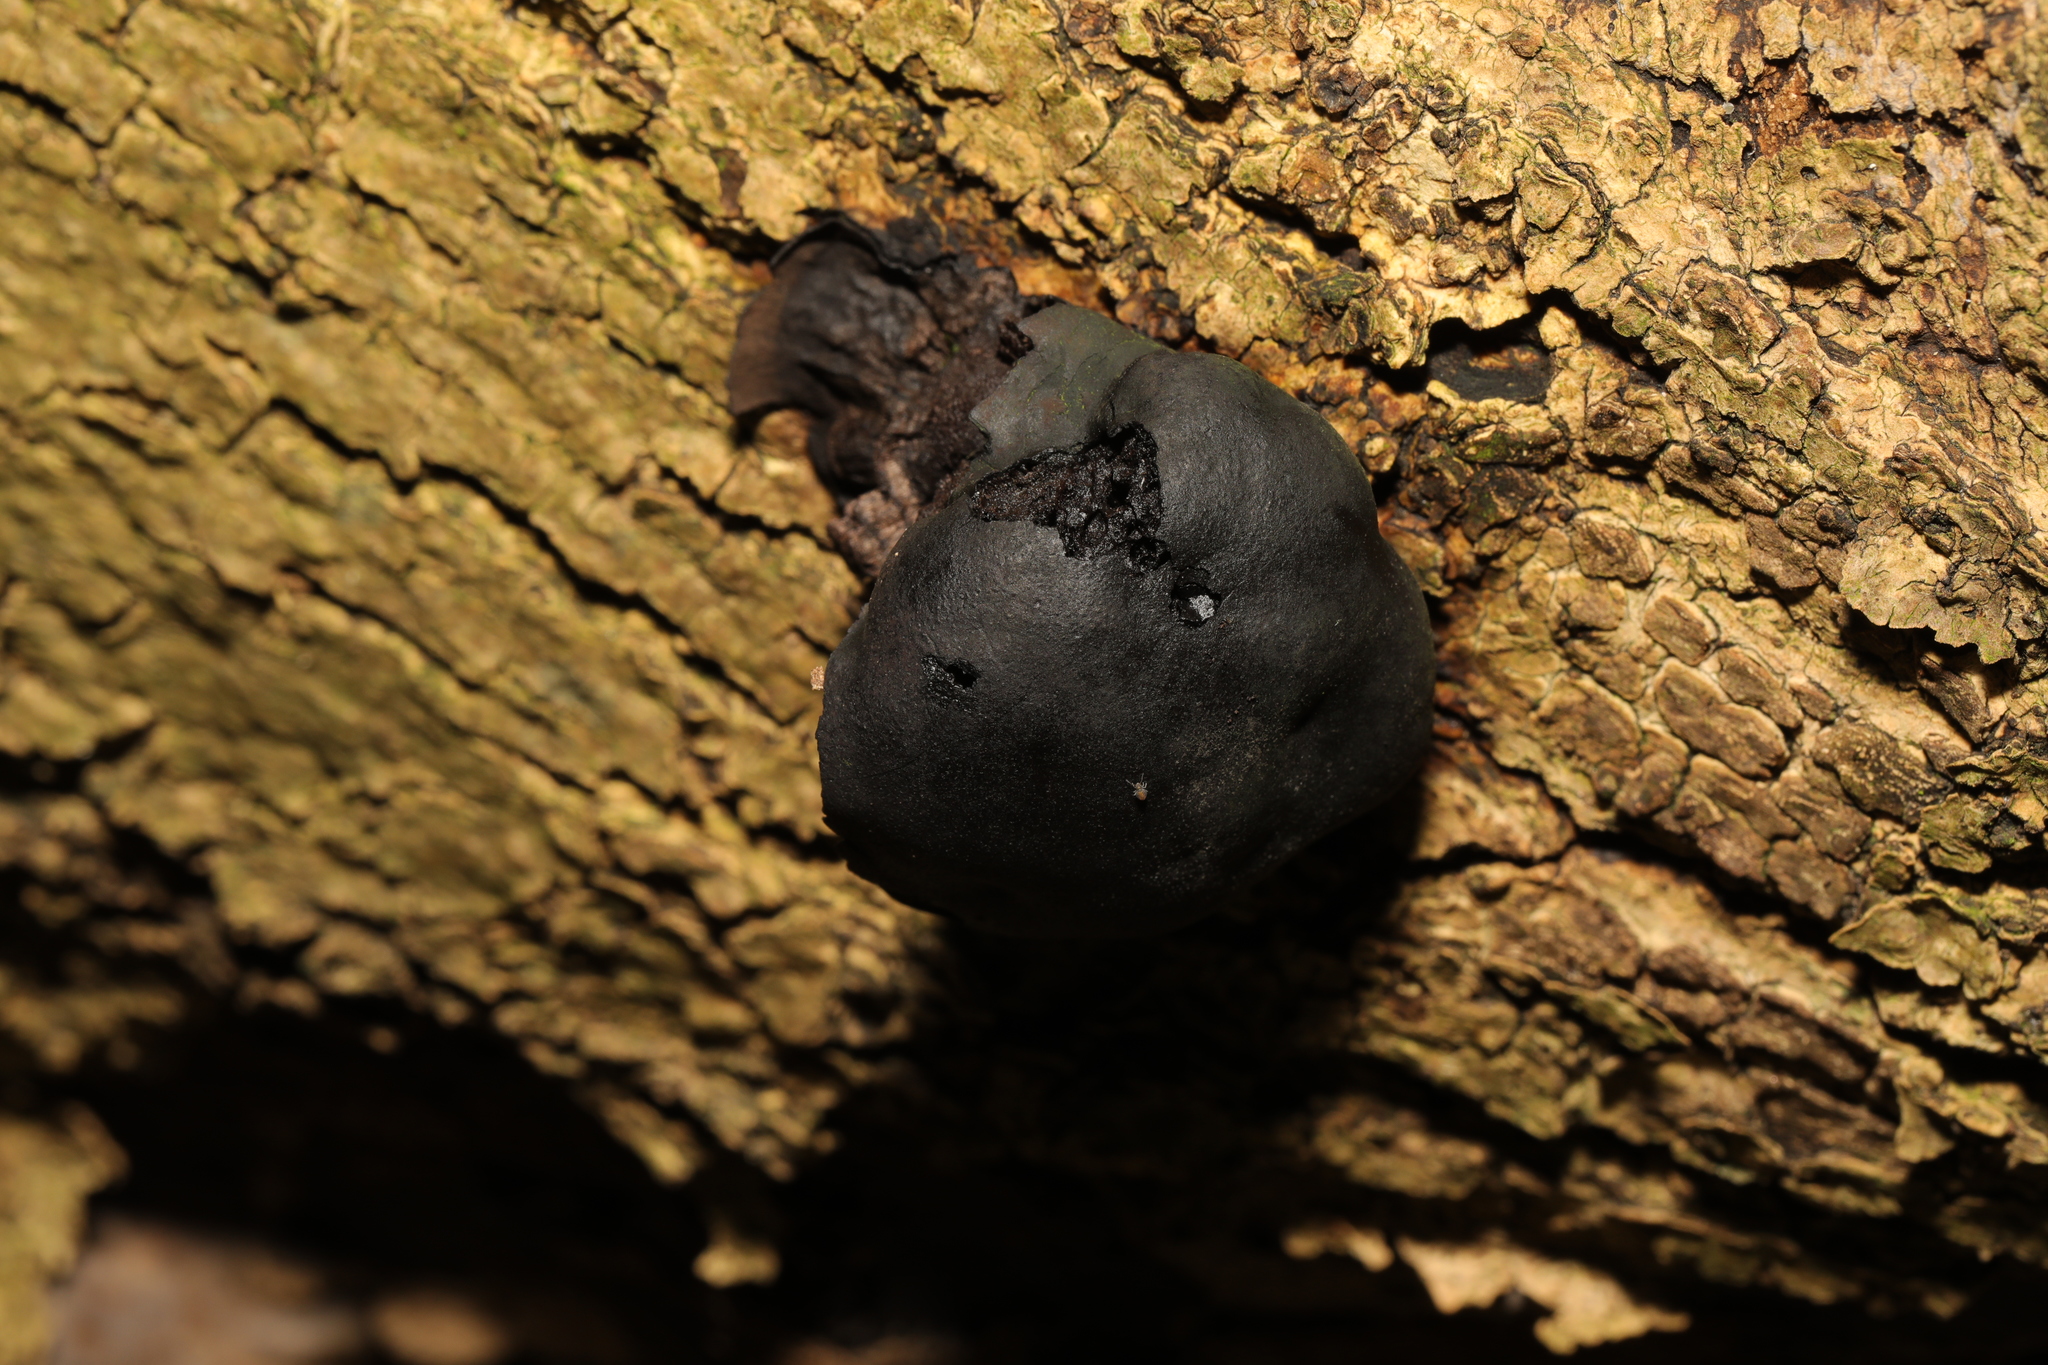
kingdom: Fungi
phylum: Ascomycota
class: Sordariomycetes
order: Xylariales
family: Hypoxylaceae
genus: Daldinia
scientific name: Daldinia concentrica
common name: Cramp balls
